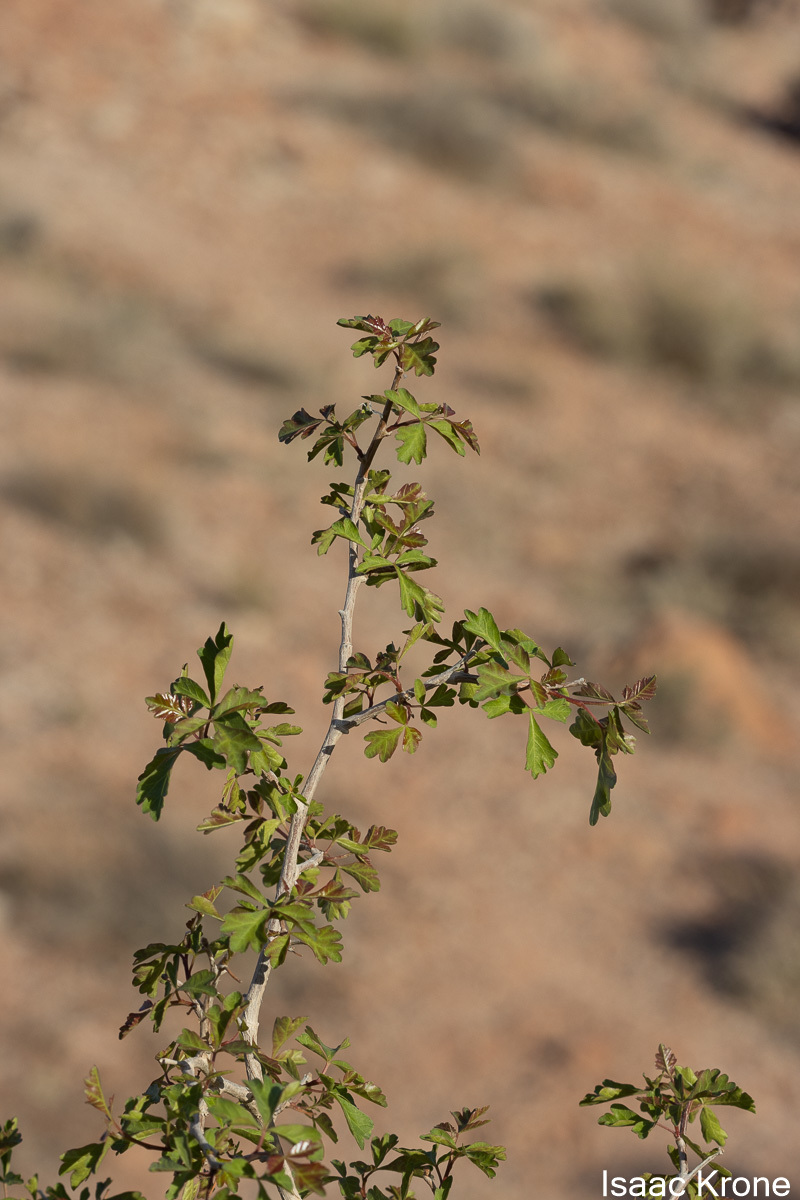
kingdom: Plantae
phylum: Tracheophyta
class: Magnoliopsida
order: Sapindales
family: Anacardiaceae
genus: Rhus
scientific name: Rhus aromatica
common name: Aromatic sumac
